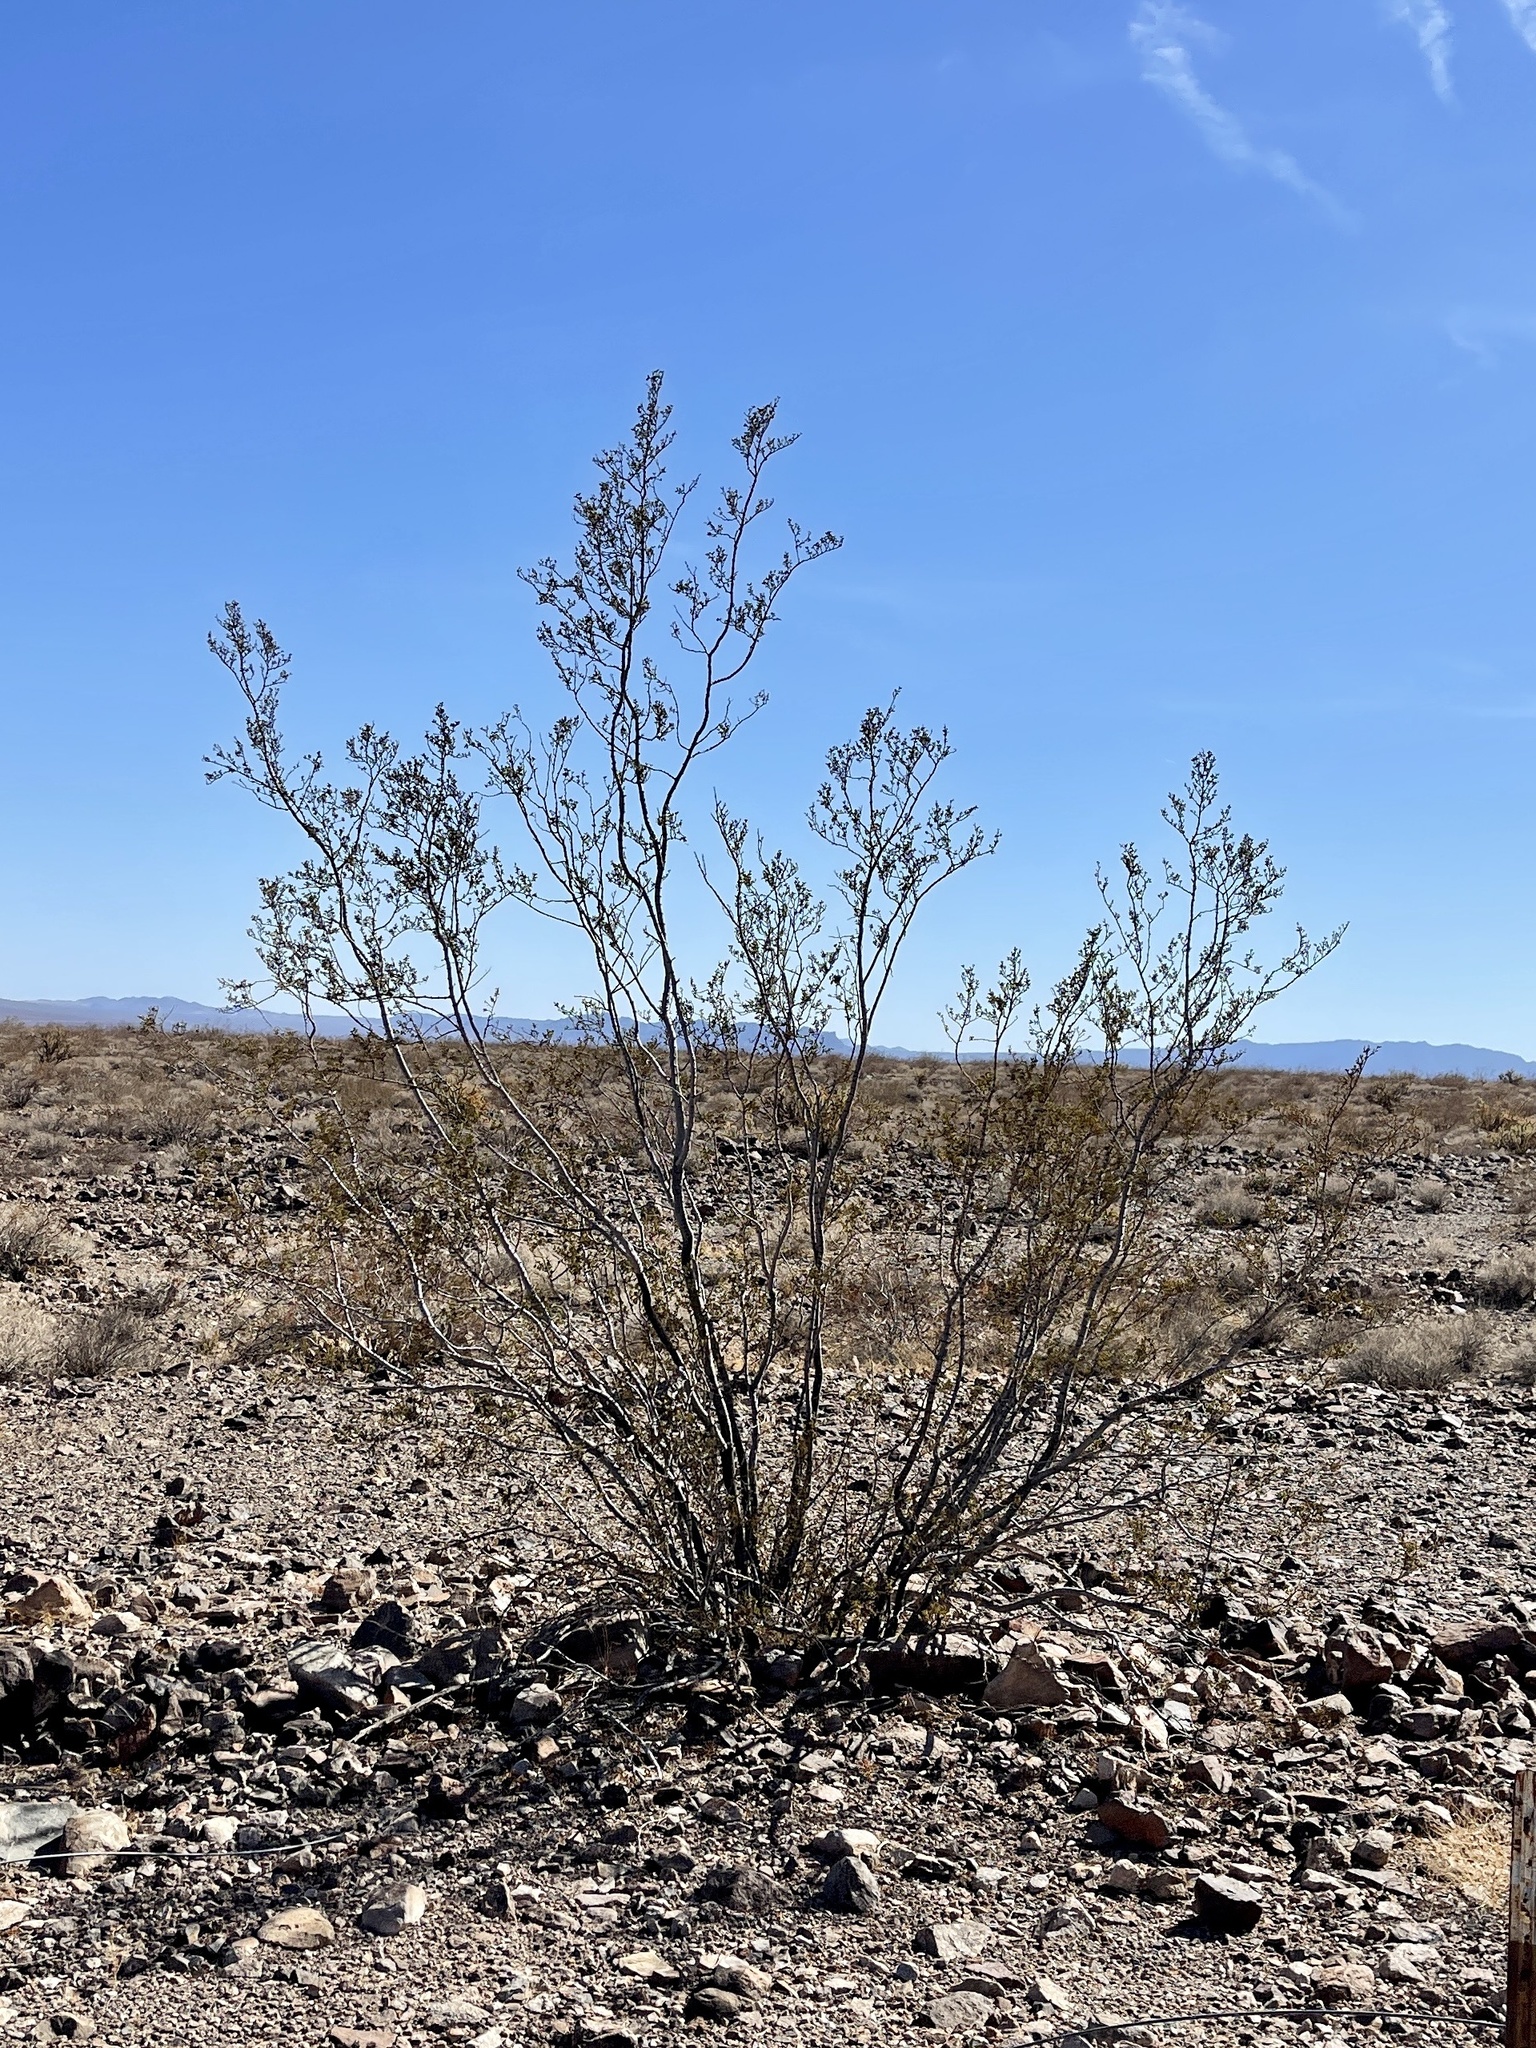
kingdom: Plantae
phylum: Tracheophyta
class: Magnoliopsida
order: Zygophyllales
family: Zygophyllaceae
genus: Larrea
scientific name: Larrea tridentata
